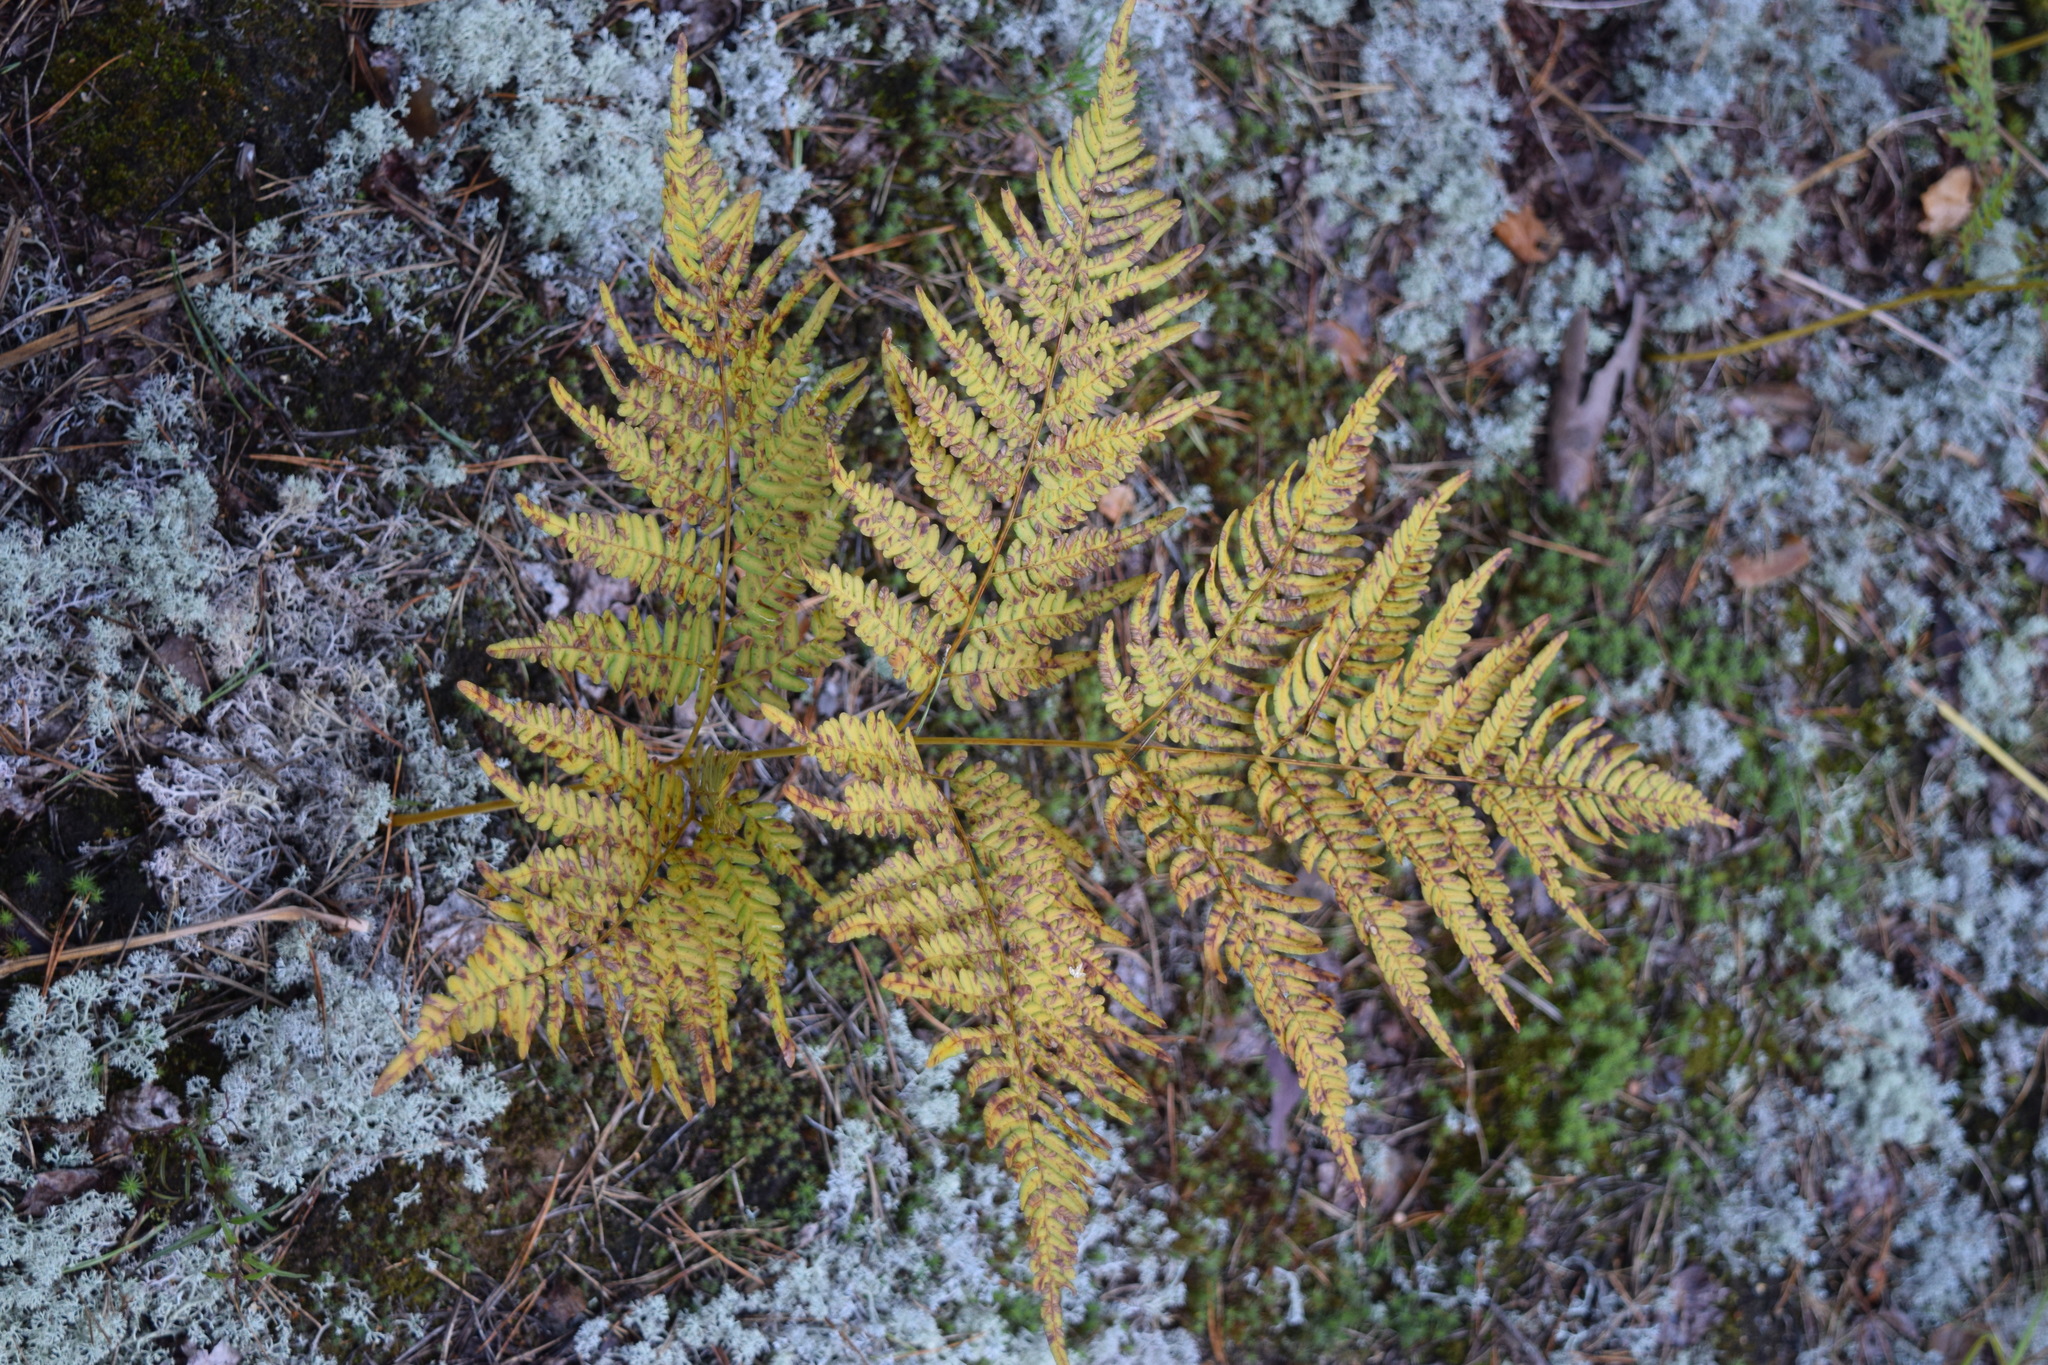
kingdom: Plantae
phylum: Tracheophyta
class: Polypodiopsida
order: Polypodiales
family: Dennstaedtiaceae
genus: Pteridium
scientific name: Pteridium aquilinum
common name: Bracken
